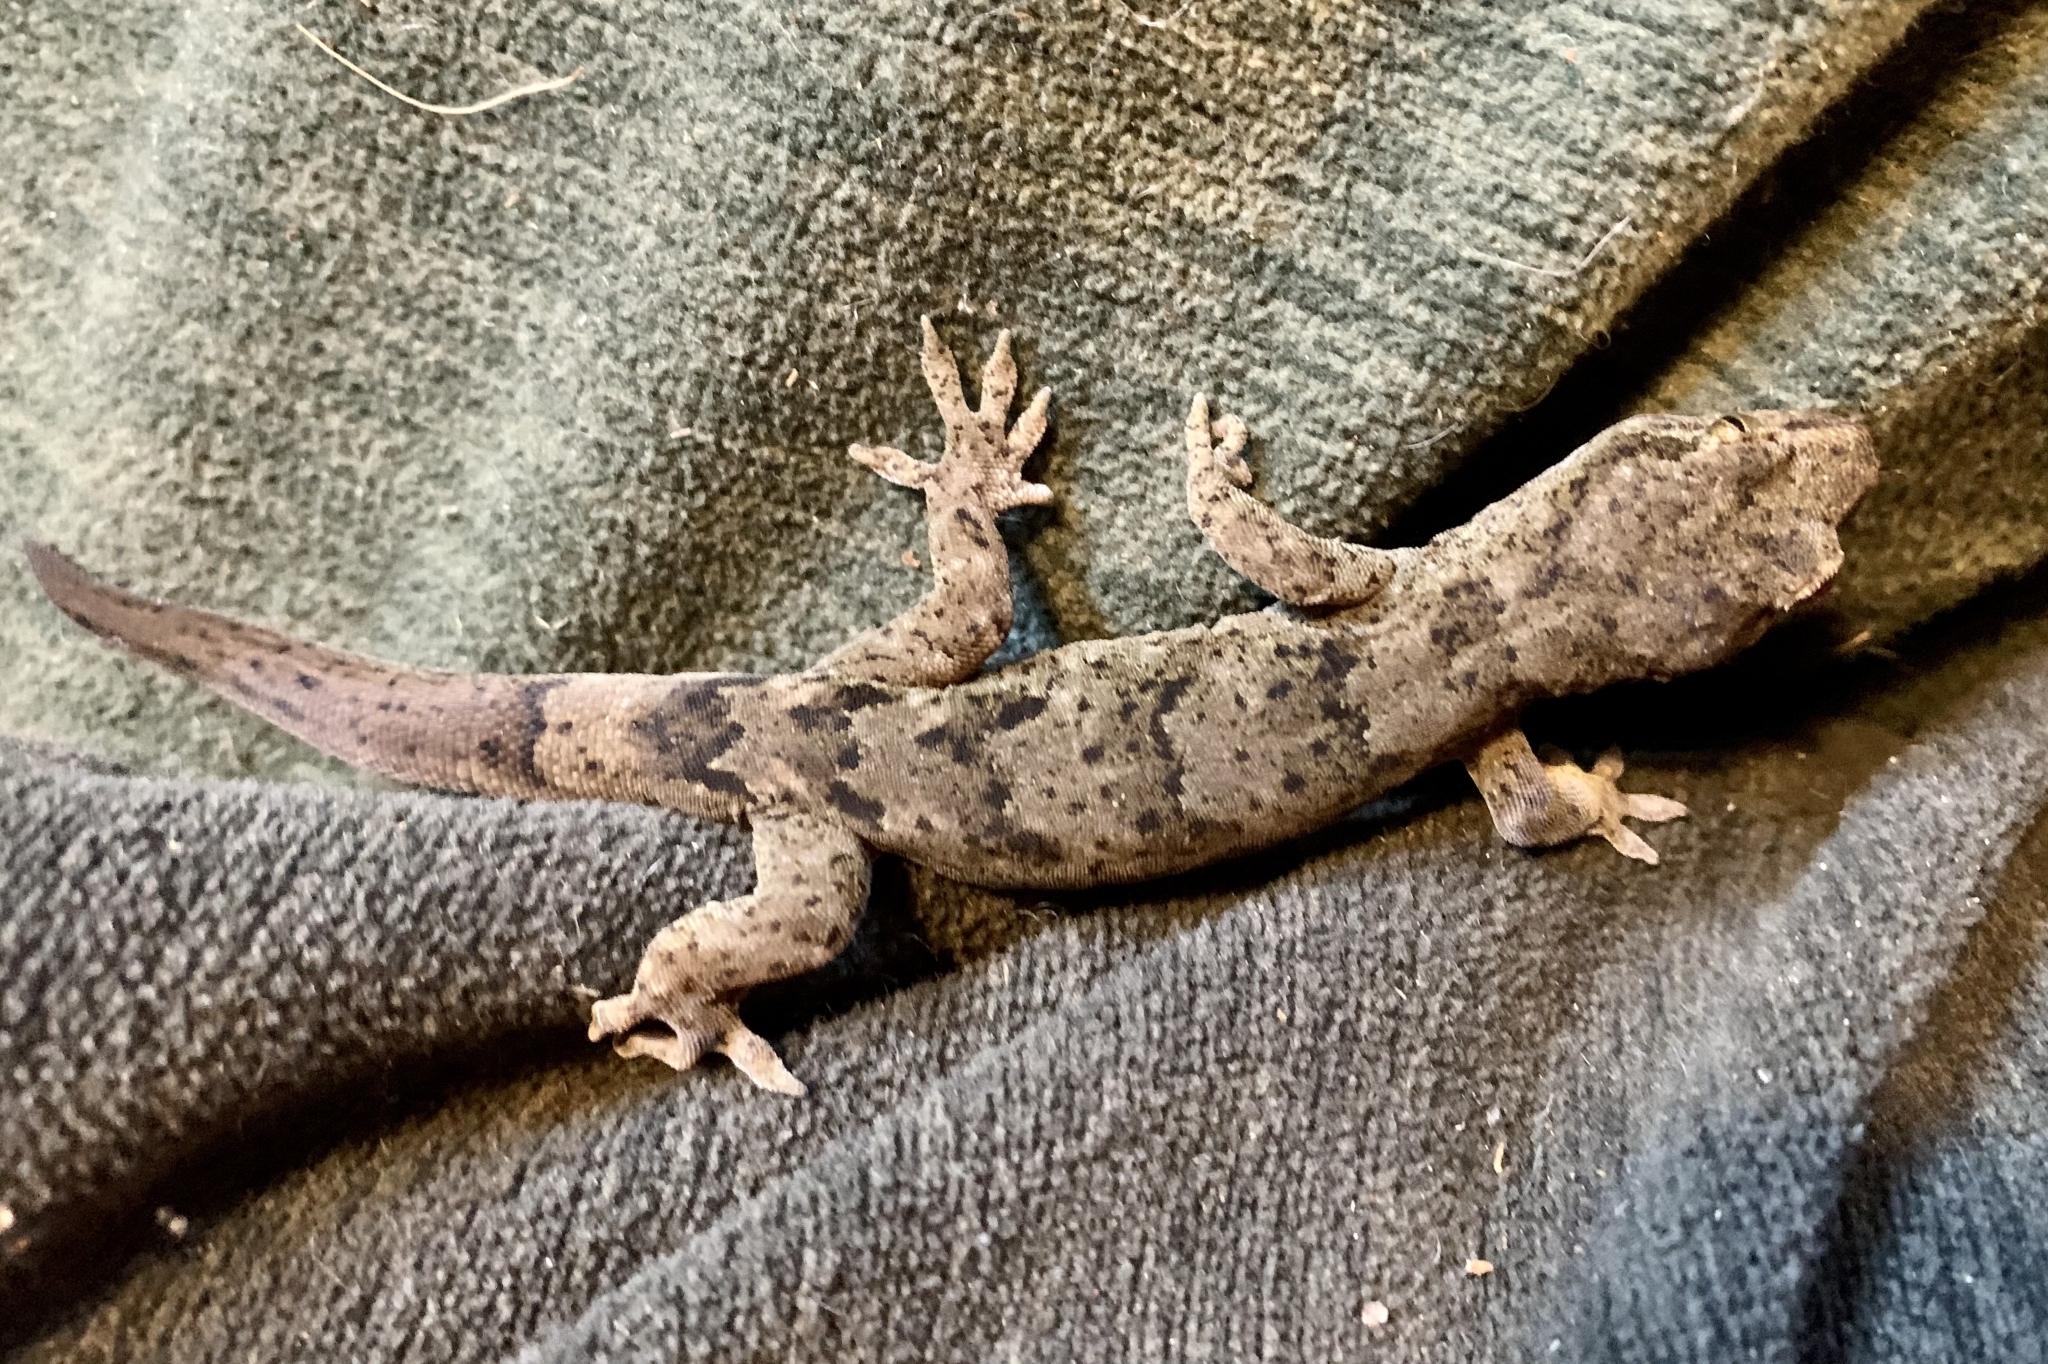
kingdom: Animalia
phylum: Chordata
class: Squamata
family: Diplodactylidae
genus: Woodworthia
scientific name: Woodworthia brunnea
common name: Canterbury gecko
